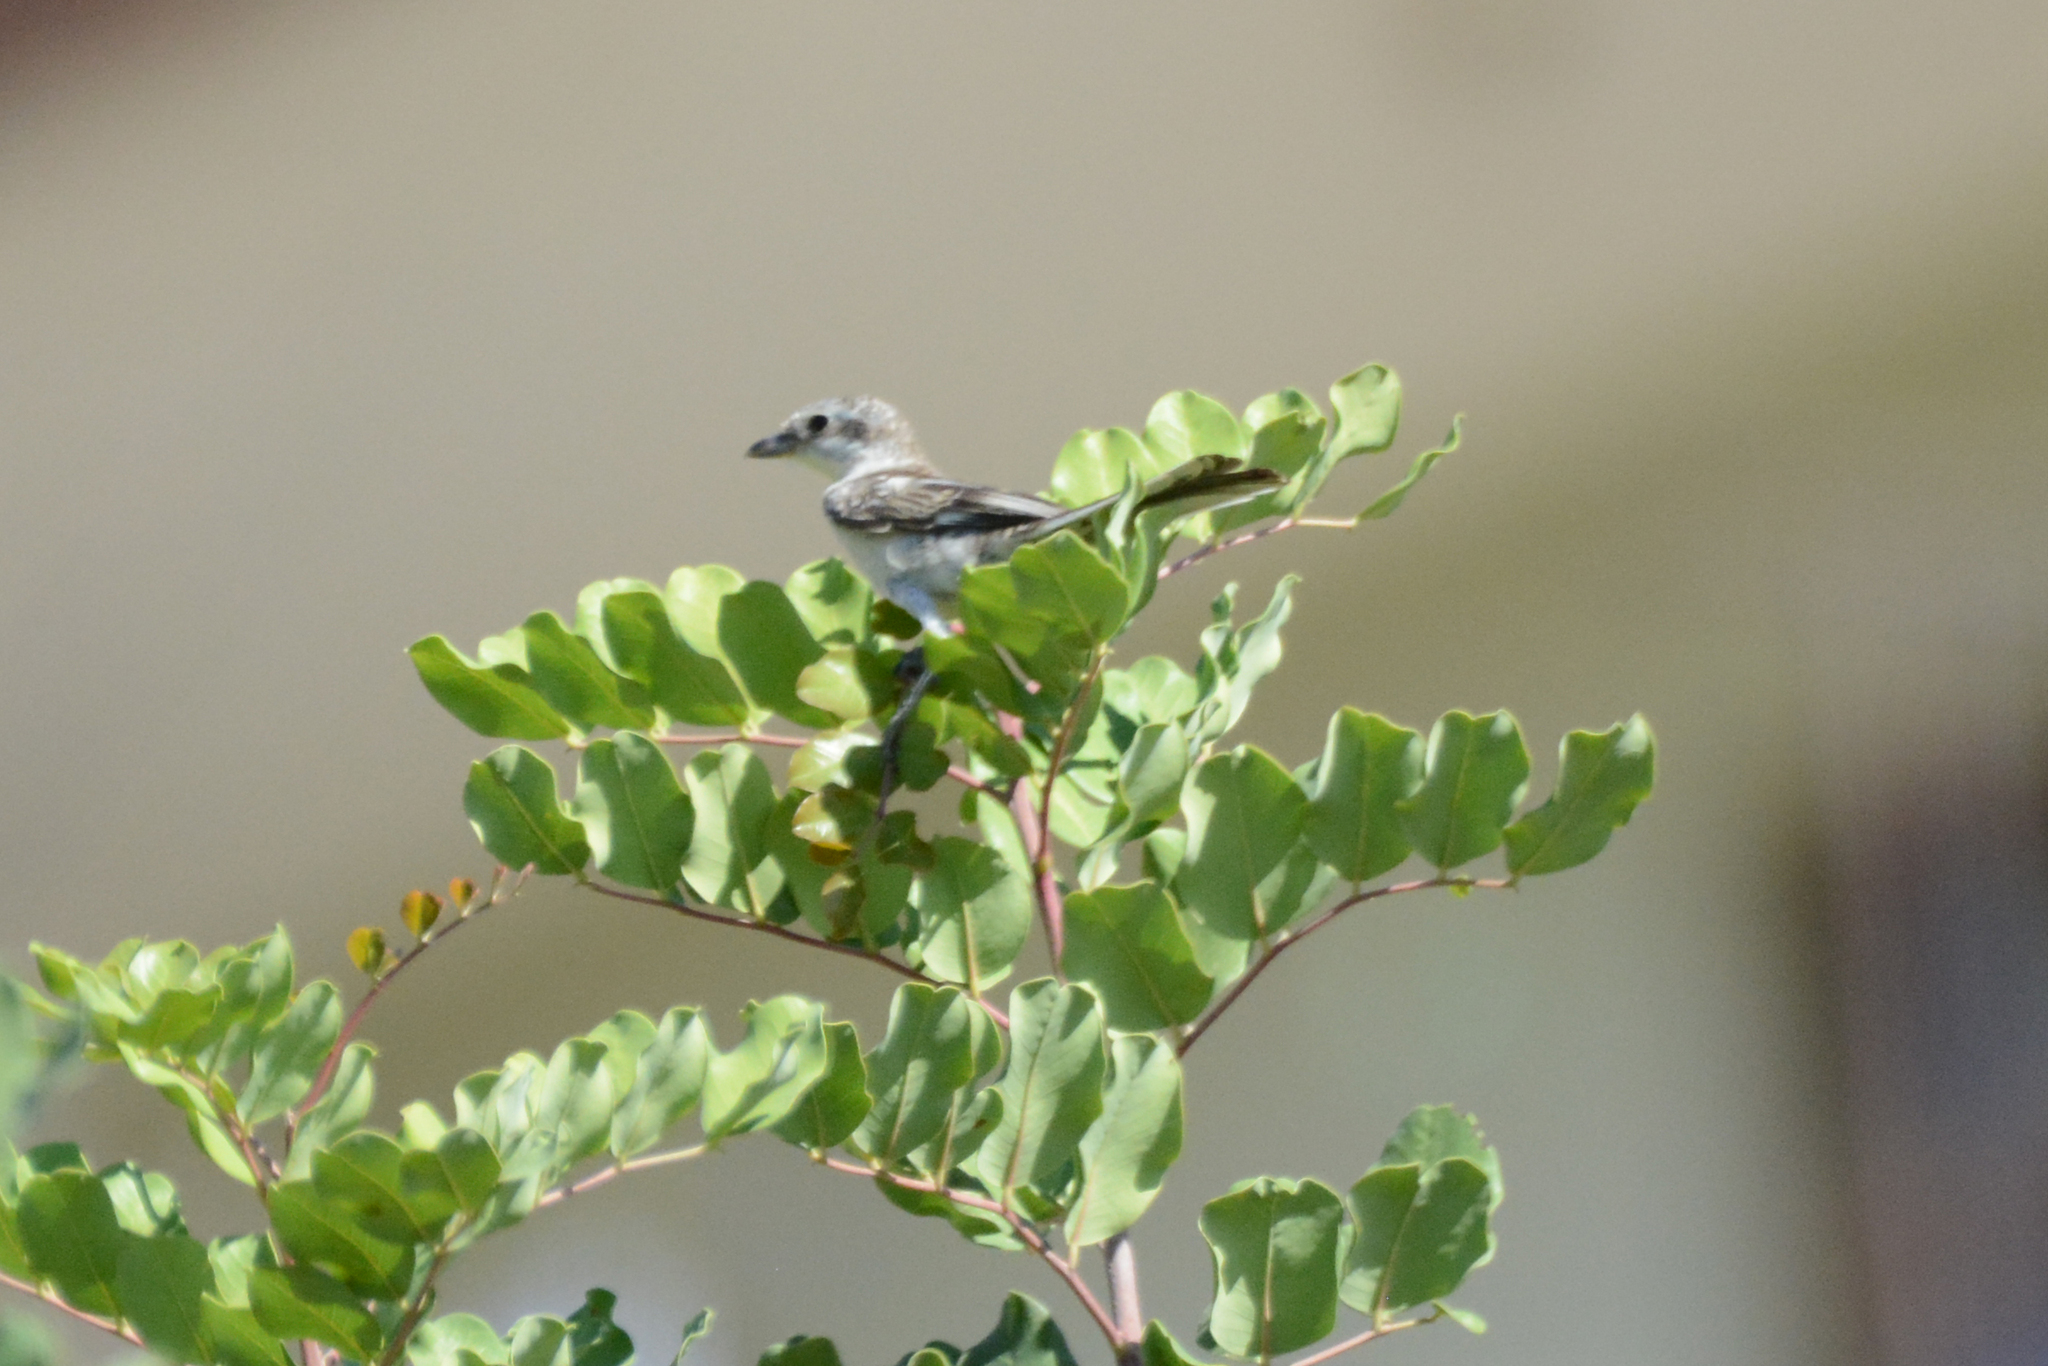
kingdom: Animalia
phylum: Chordata
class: Aves
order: Passeriformes
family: Laniidae
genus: Lanius
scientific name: Lanius nubicus
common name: Masked shrike
